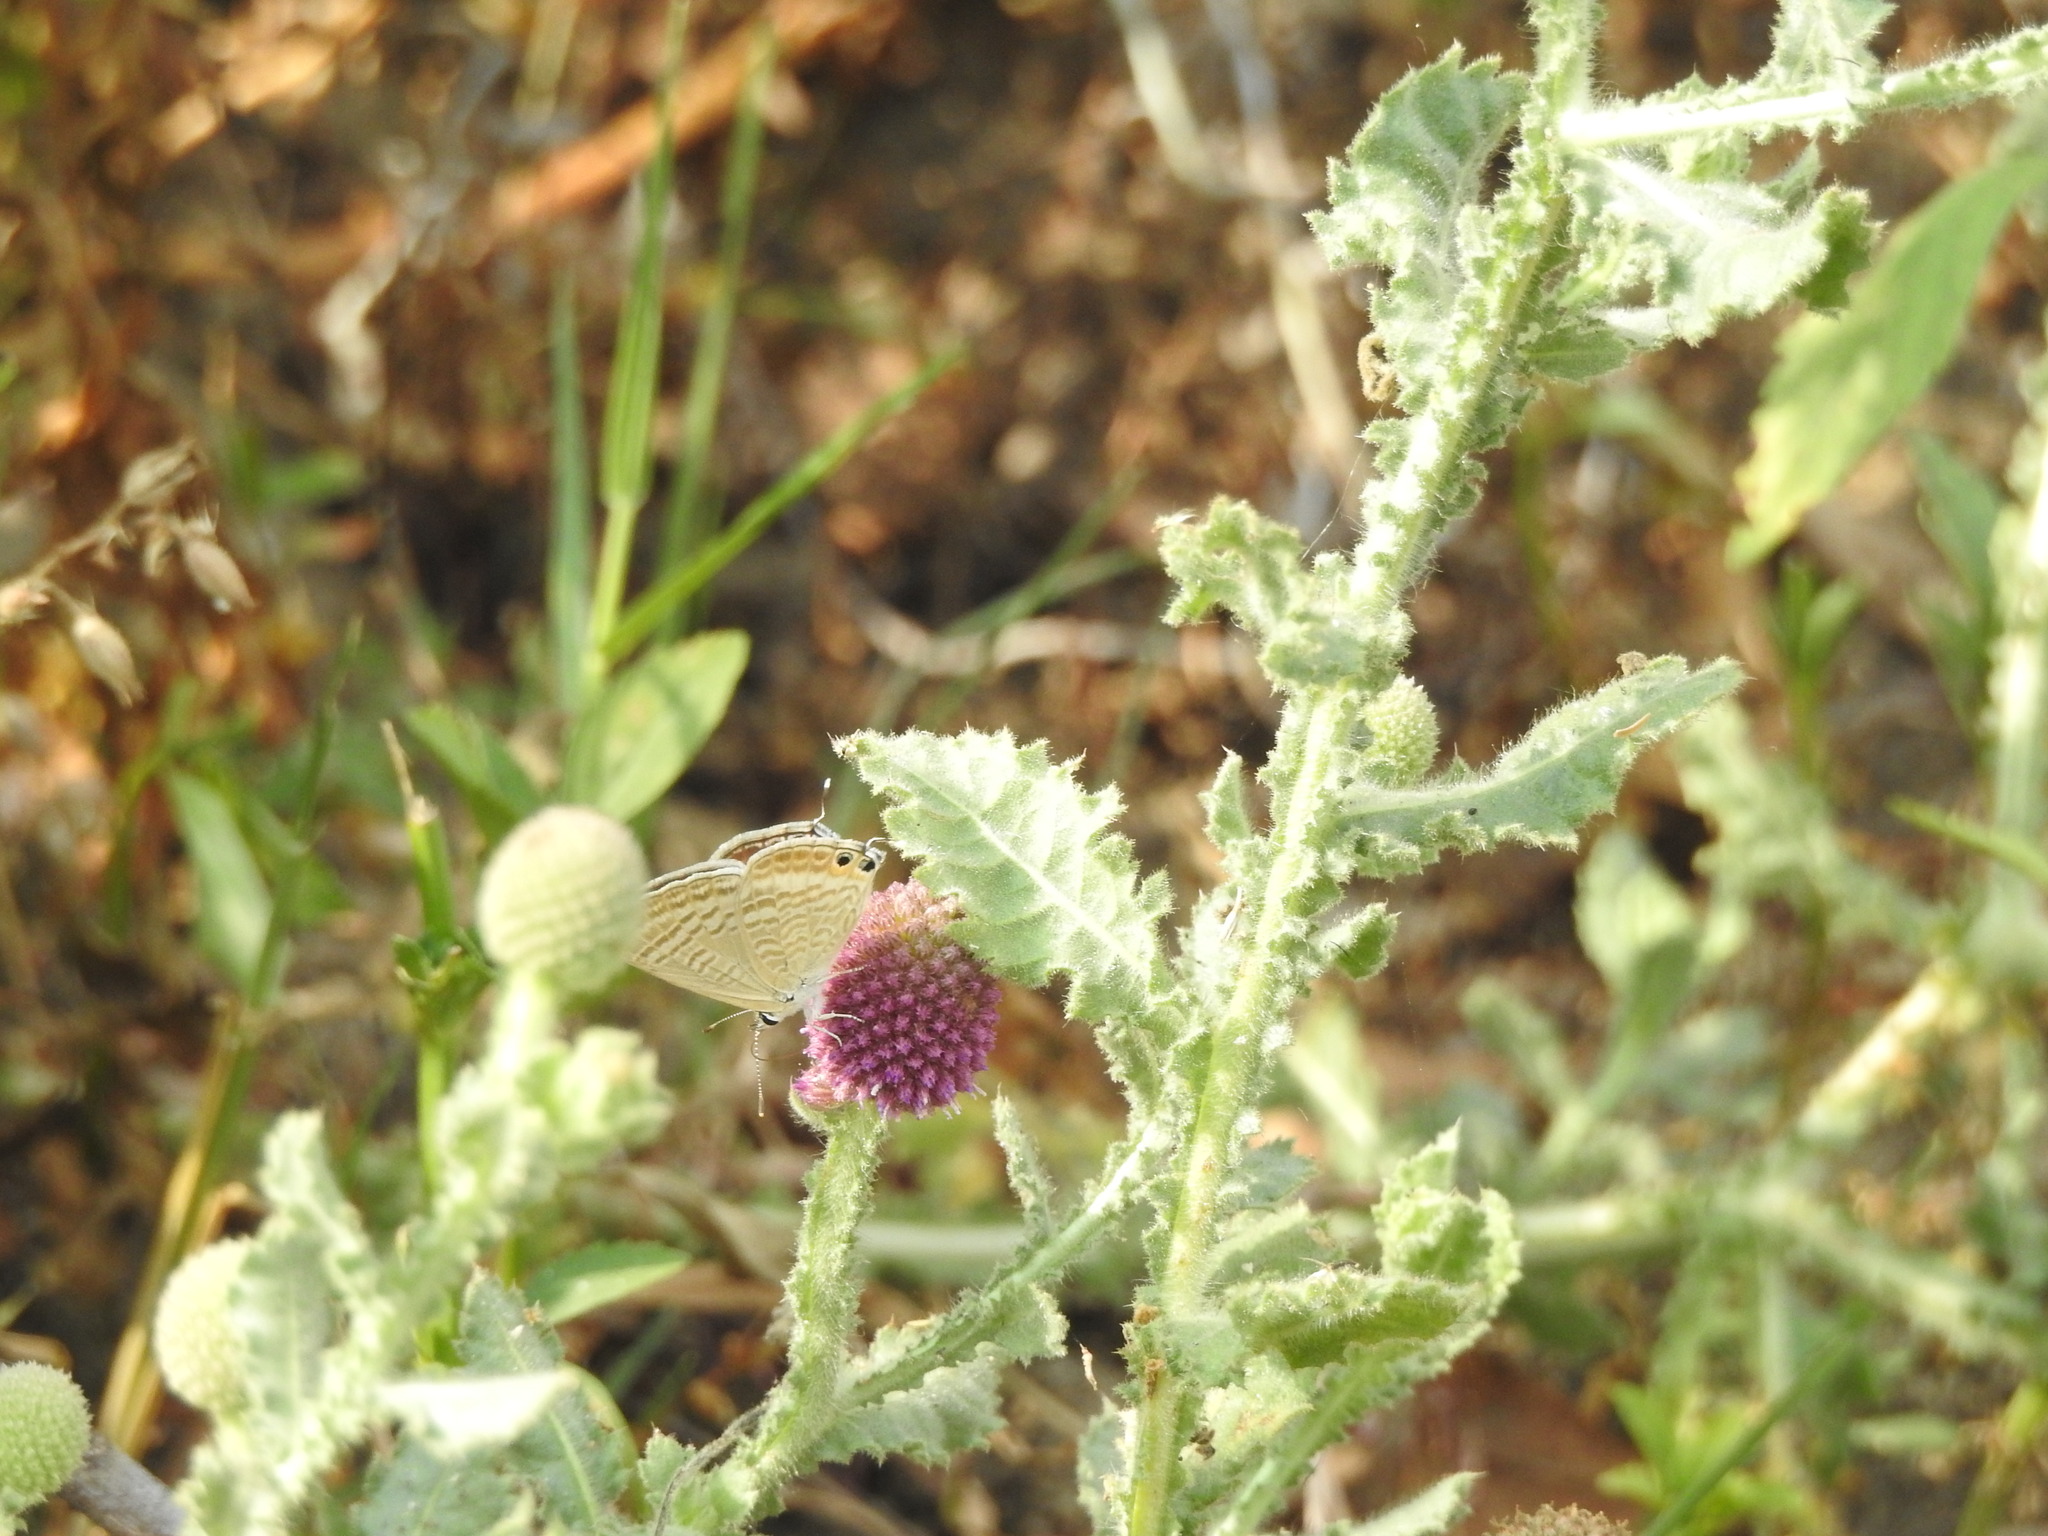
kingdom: Animalia
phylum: Arthropoda
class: Insecta
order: Lepidoptera
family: Lycaenidae
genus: Lampides
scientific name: Lampides boeticus
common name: Long-tailed blue
